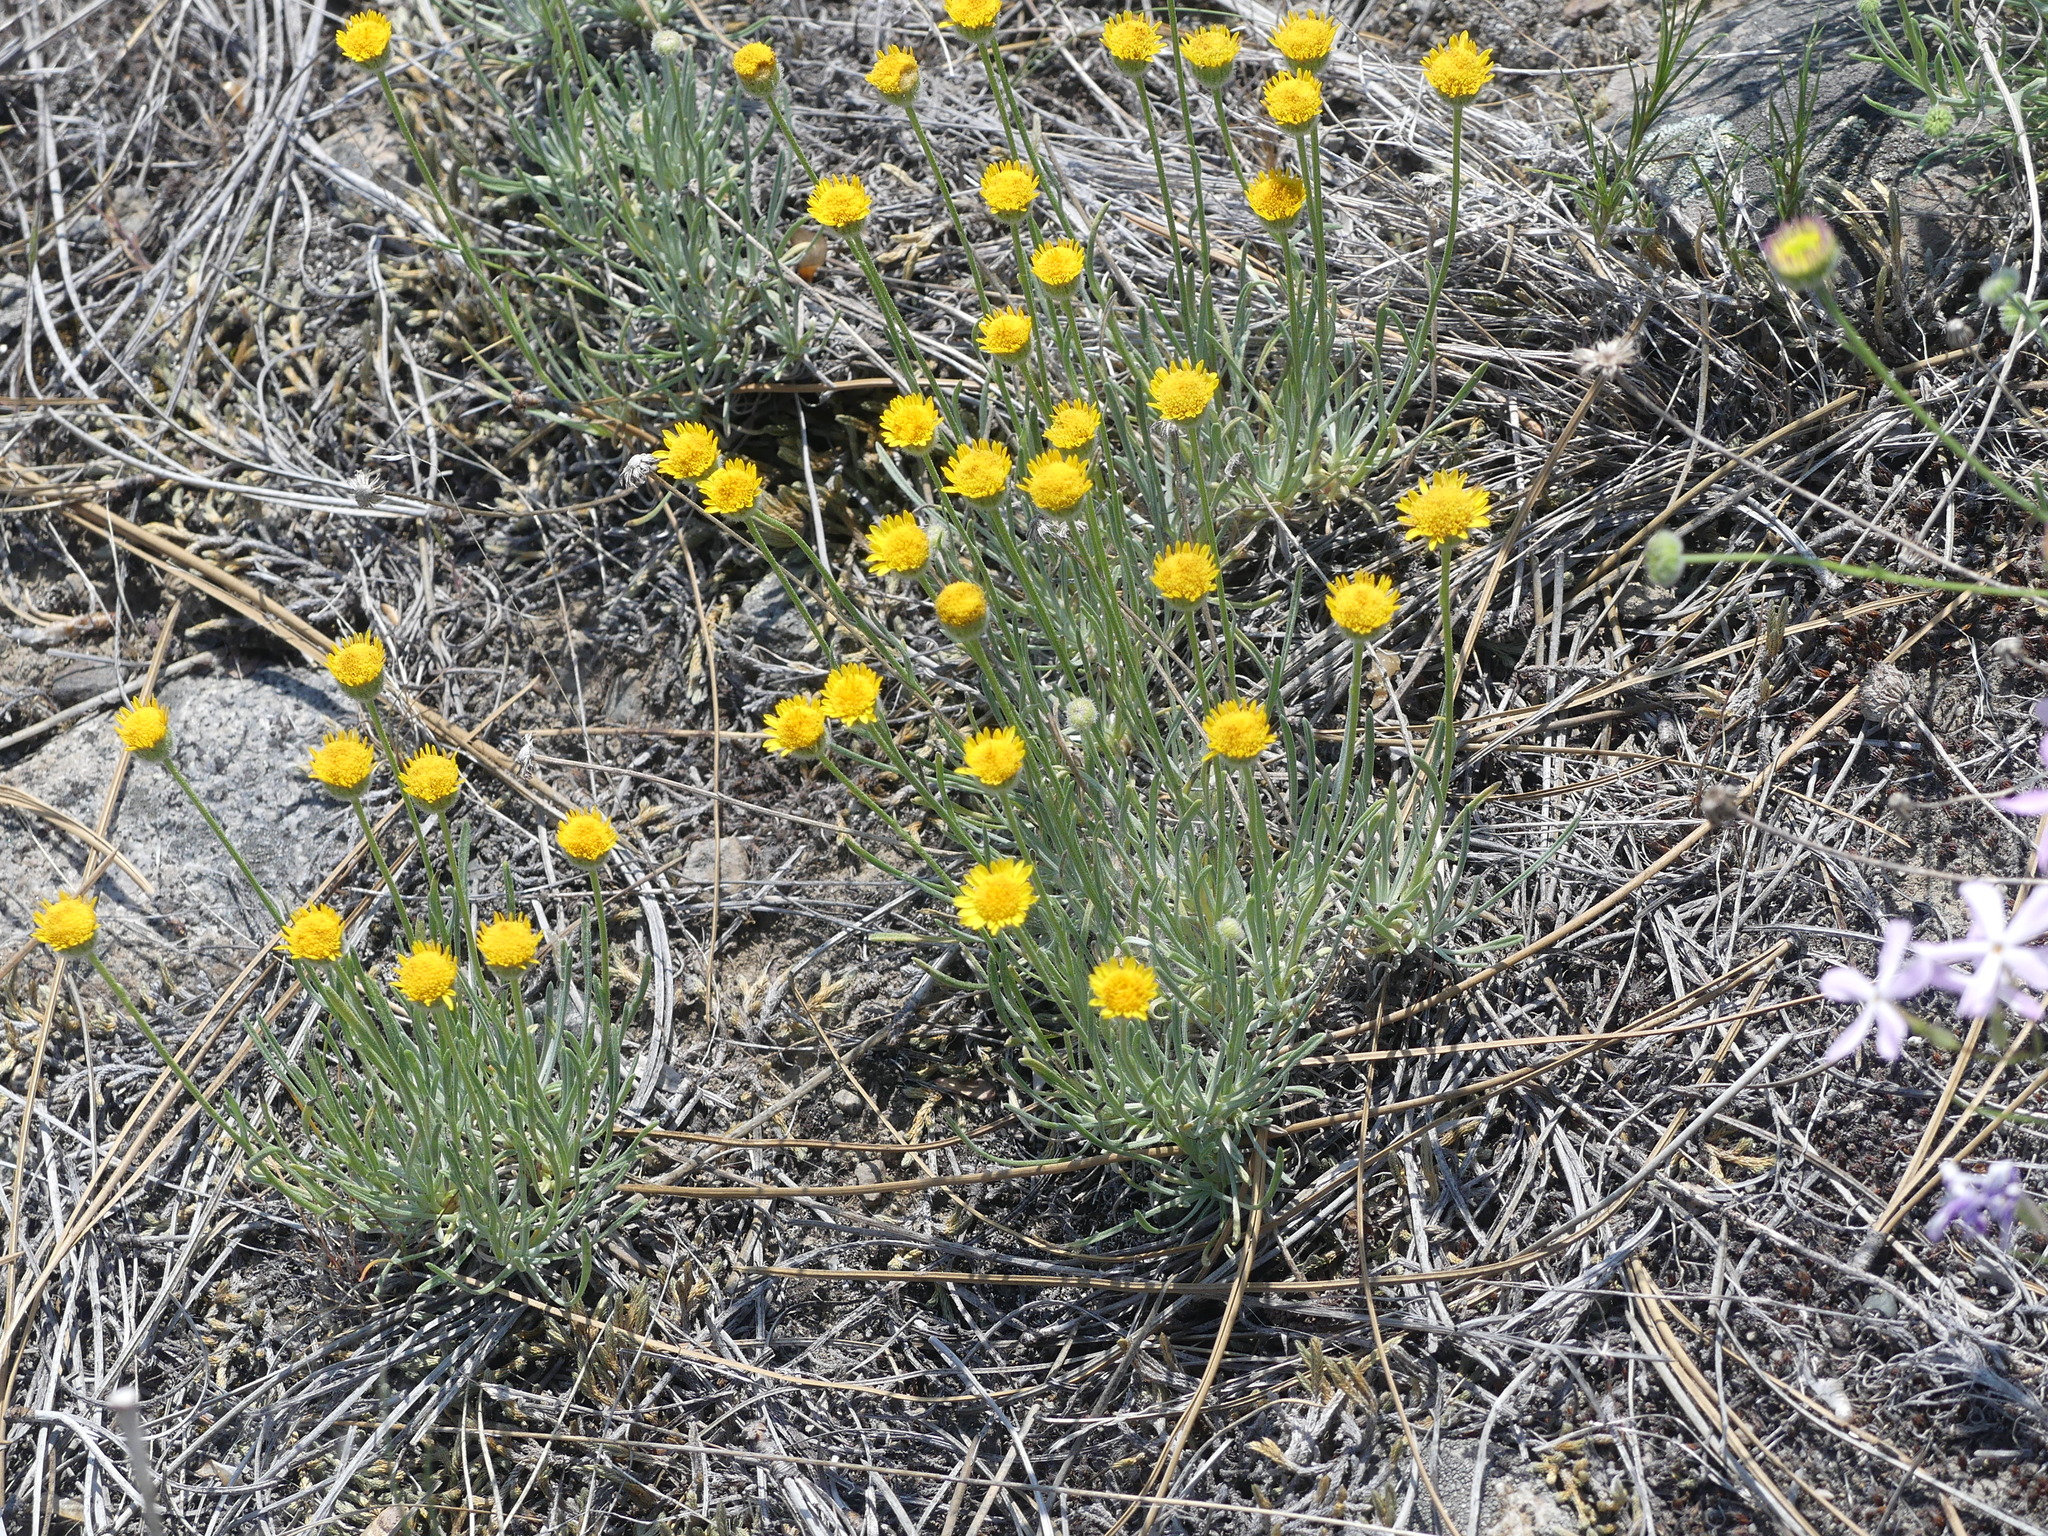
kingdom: Plantae
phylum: Tracheophyta
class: Magnoliopsida
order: Asterales
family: Asteraceae
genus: Erigeron
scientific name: Erigeron linearis
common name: Desert yellow fleabane
